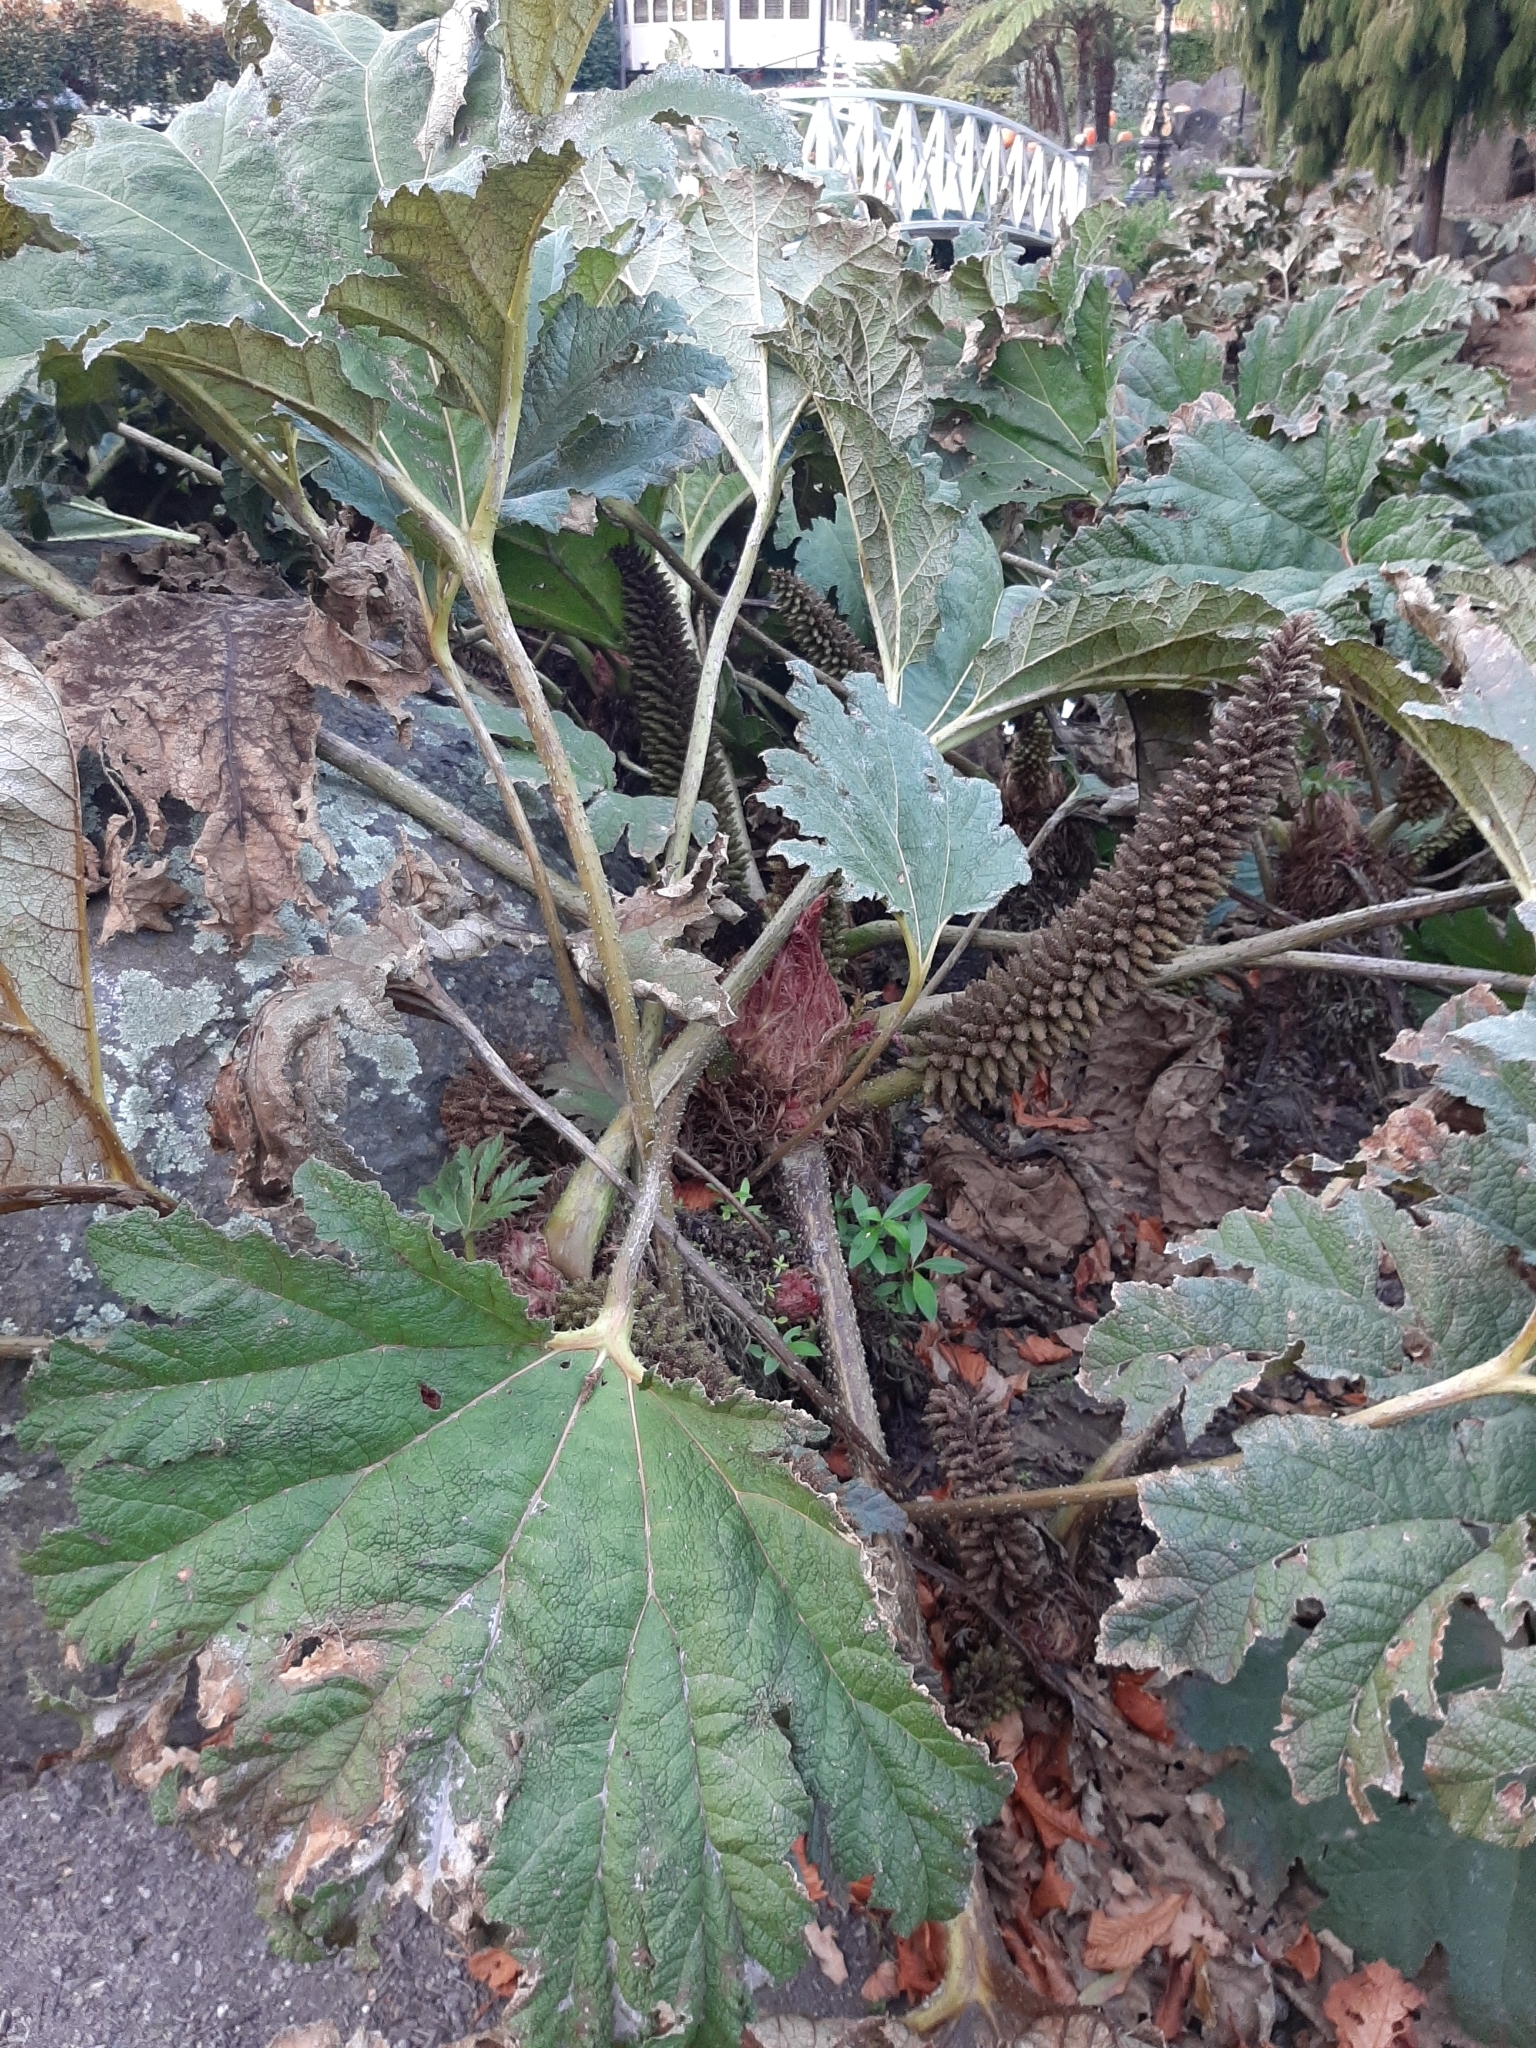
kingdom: Plantae
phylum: Tracheophyta
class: Magnoliopsida
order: Gunnerales
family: Gunneraceae
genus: Gunnera
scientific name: Gunnera tinctoria
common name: Giant-rhubarb
